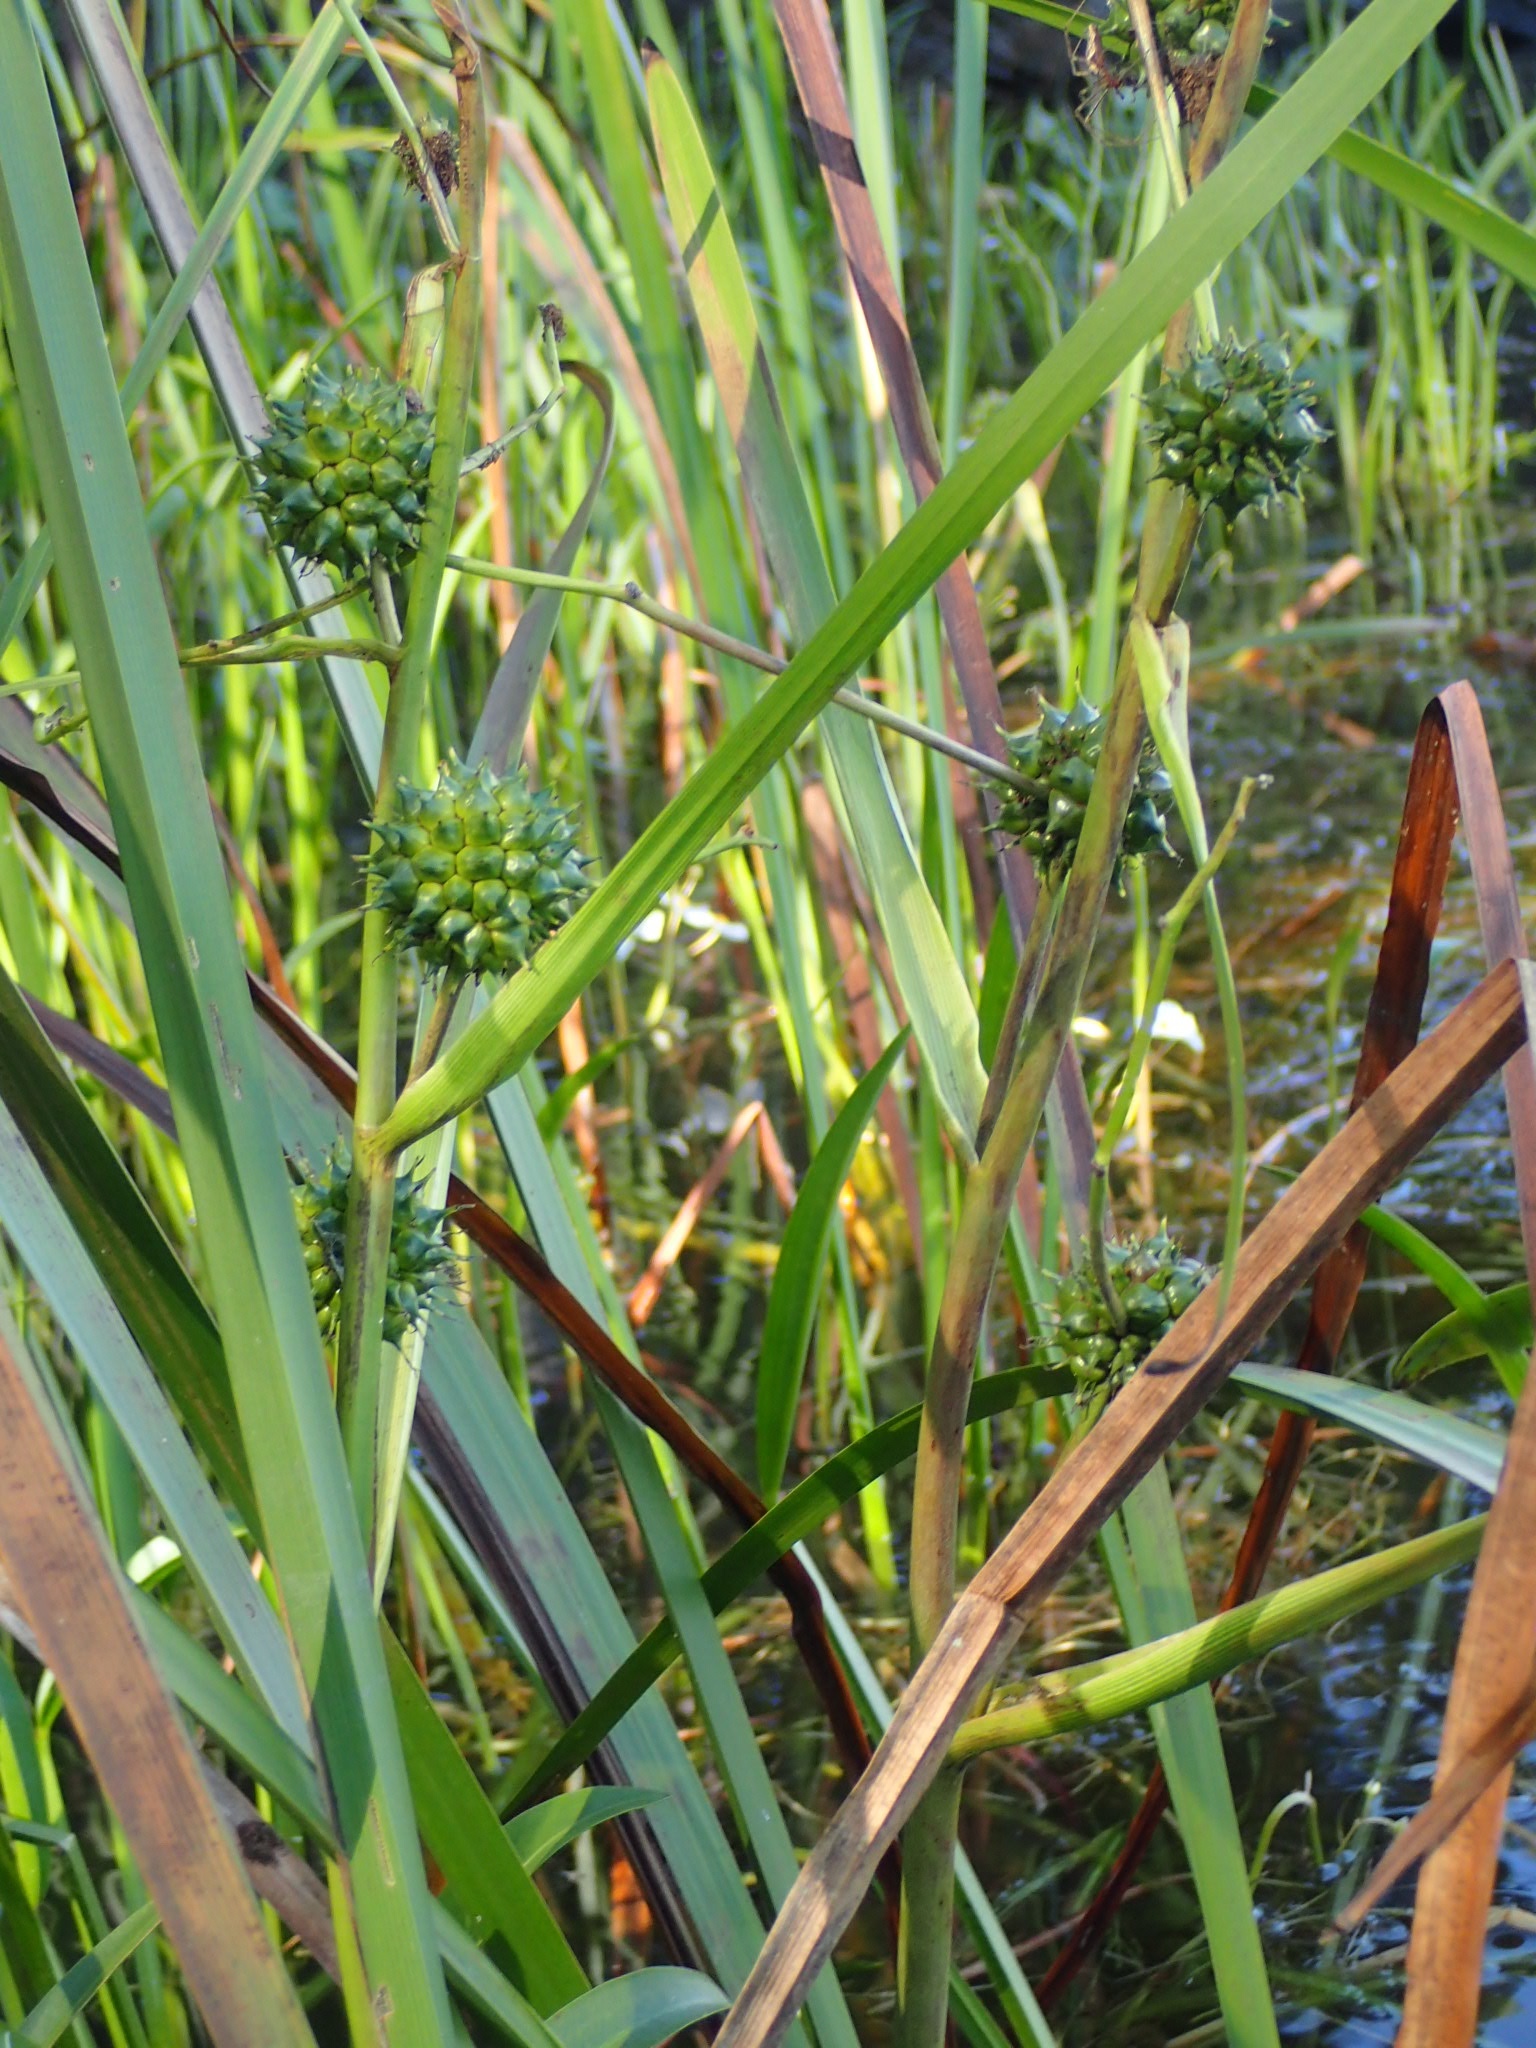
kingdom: Plantae
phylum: Tracheophyta
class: Liliopsida
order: Poales
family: Typhaceae
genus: Sparganium
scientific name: Sparganium eurycarpum
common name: Broad-fruited burreed
